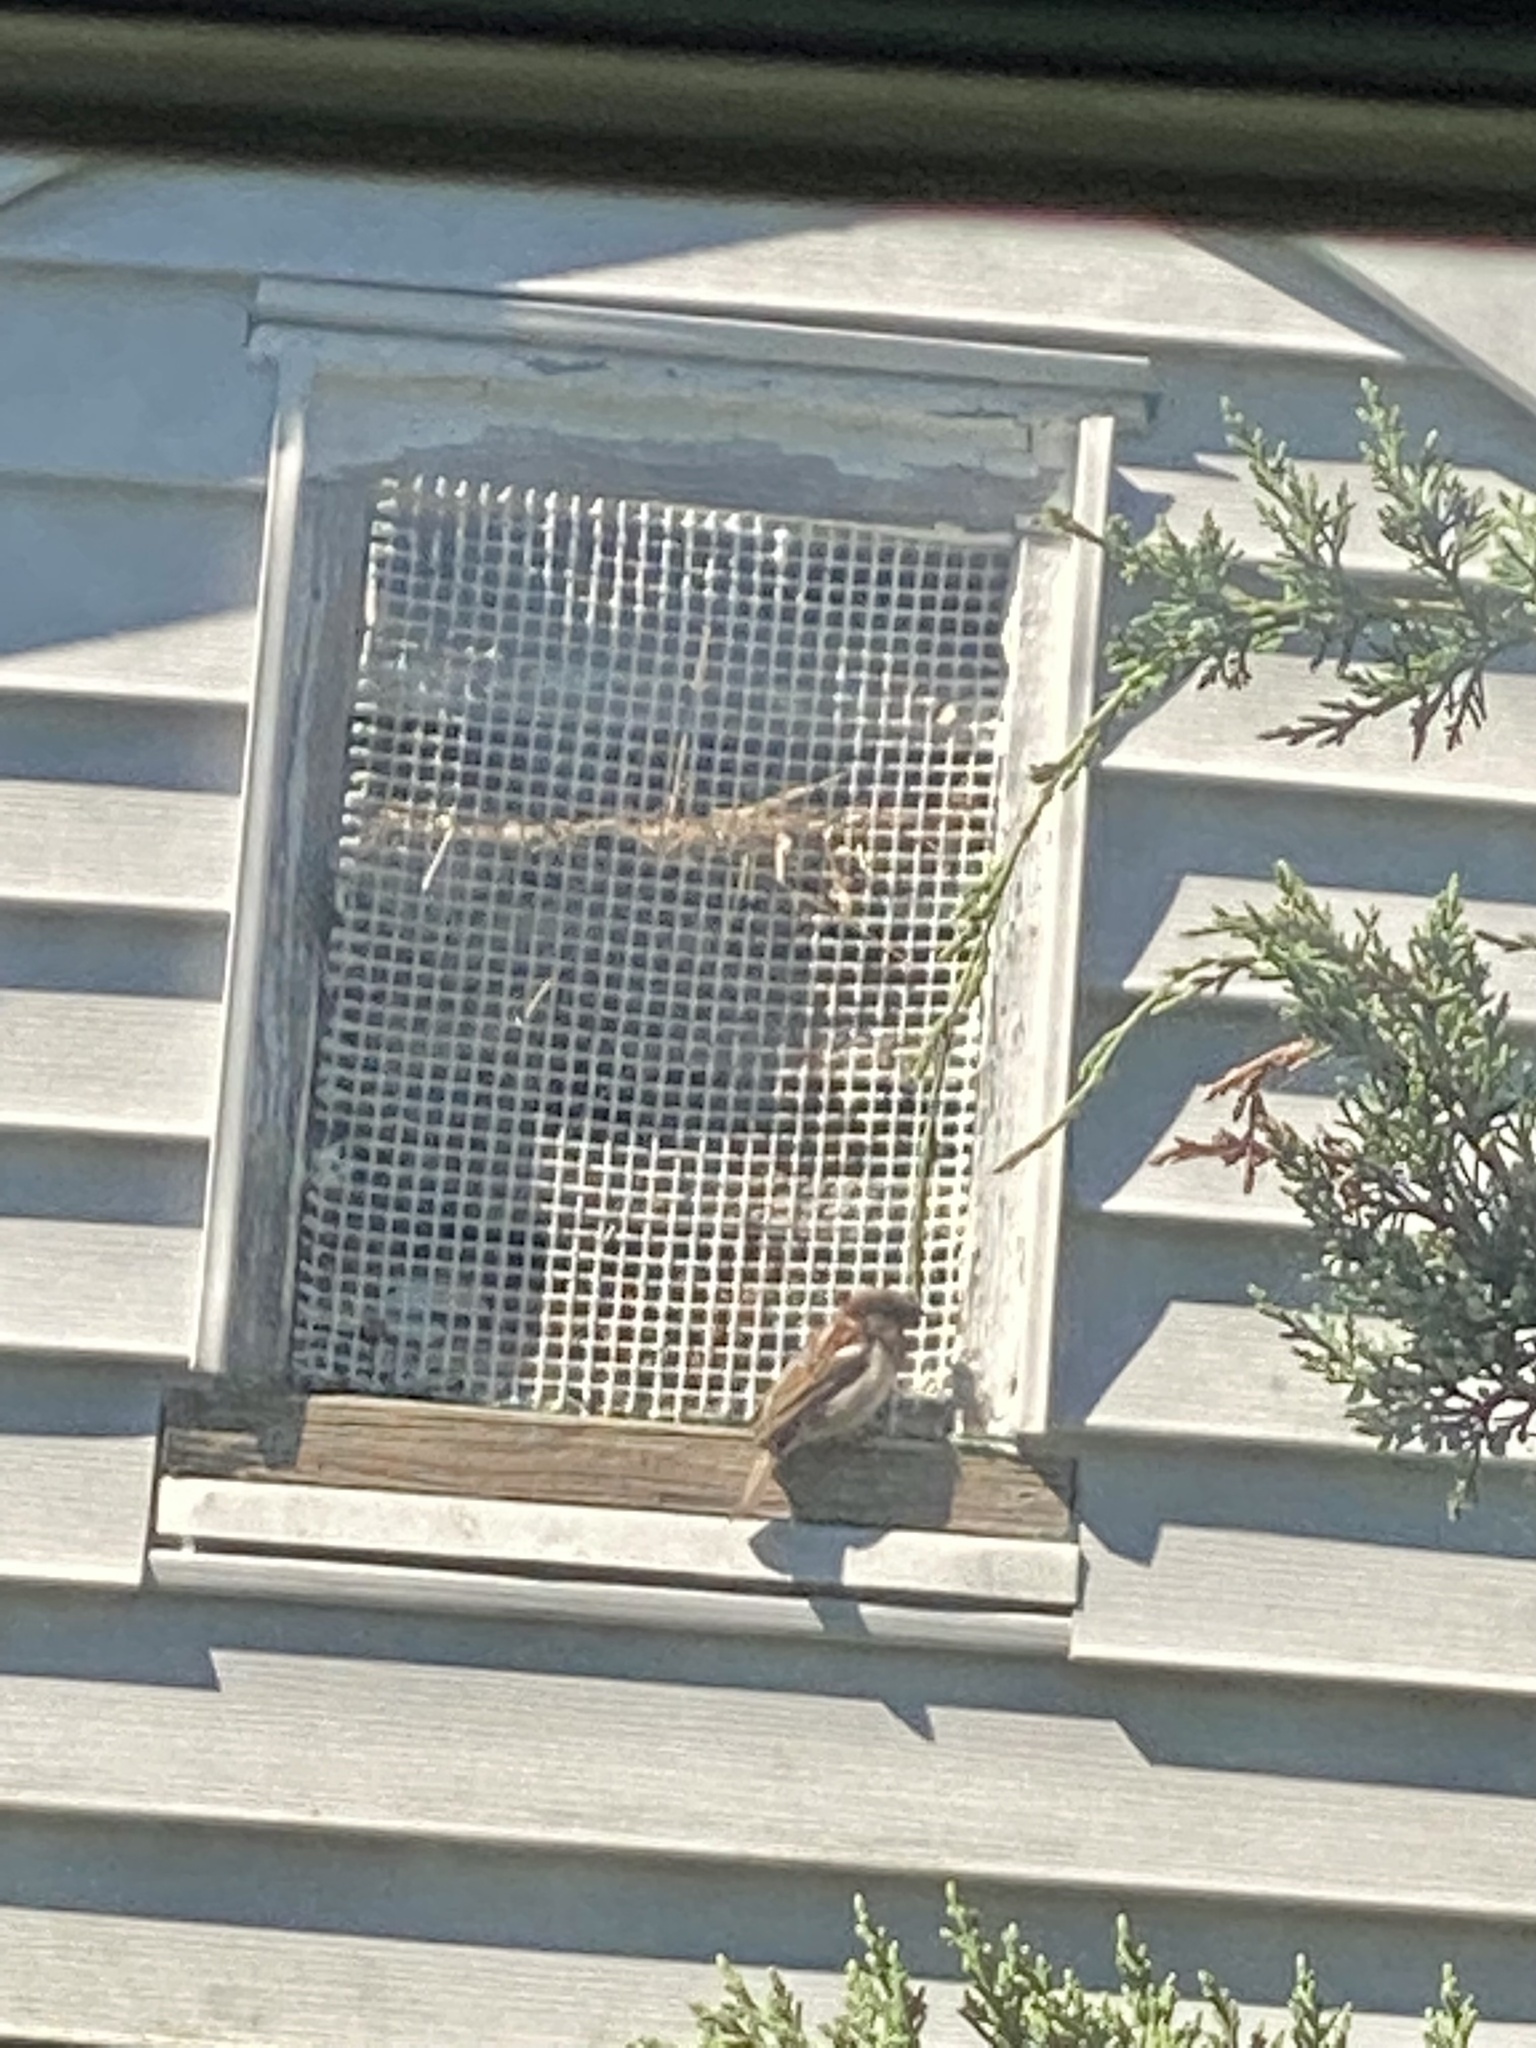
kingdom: Animalia
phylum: Chordata
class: Aves
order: Passeriformes
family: Passeridae
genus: Passer
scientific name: Passer domesticus
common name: House sparrow
